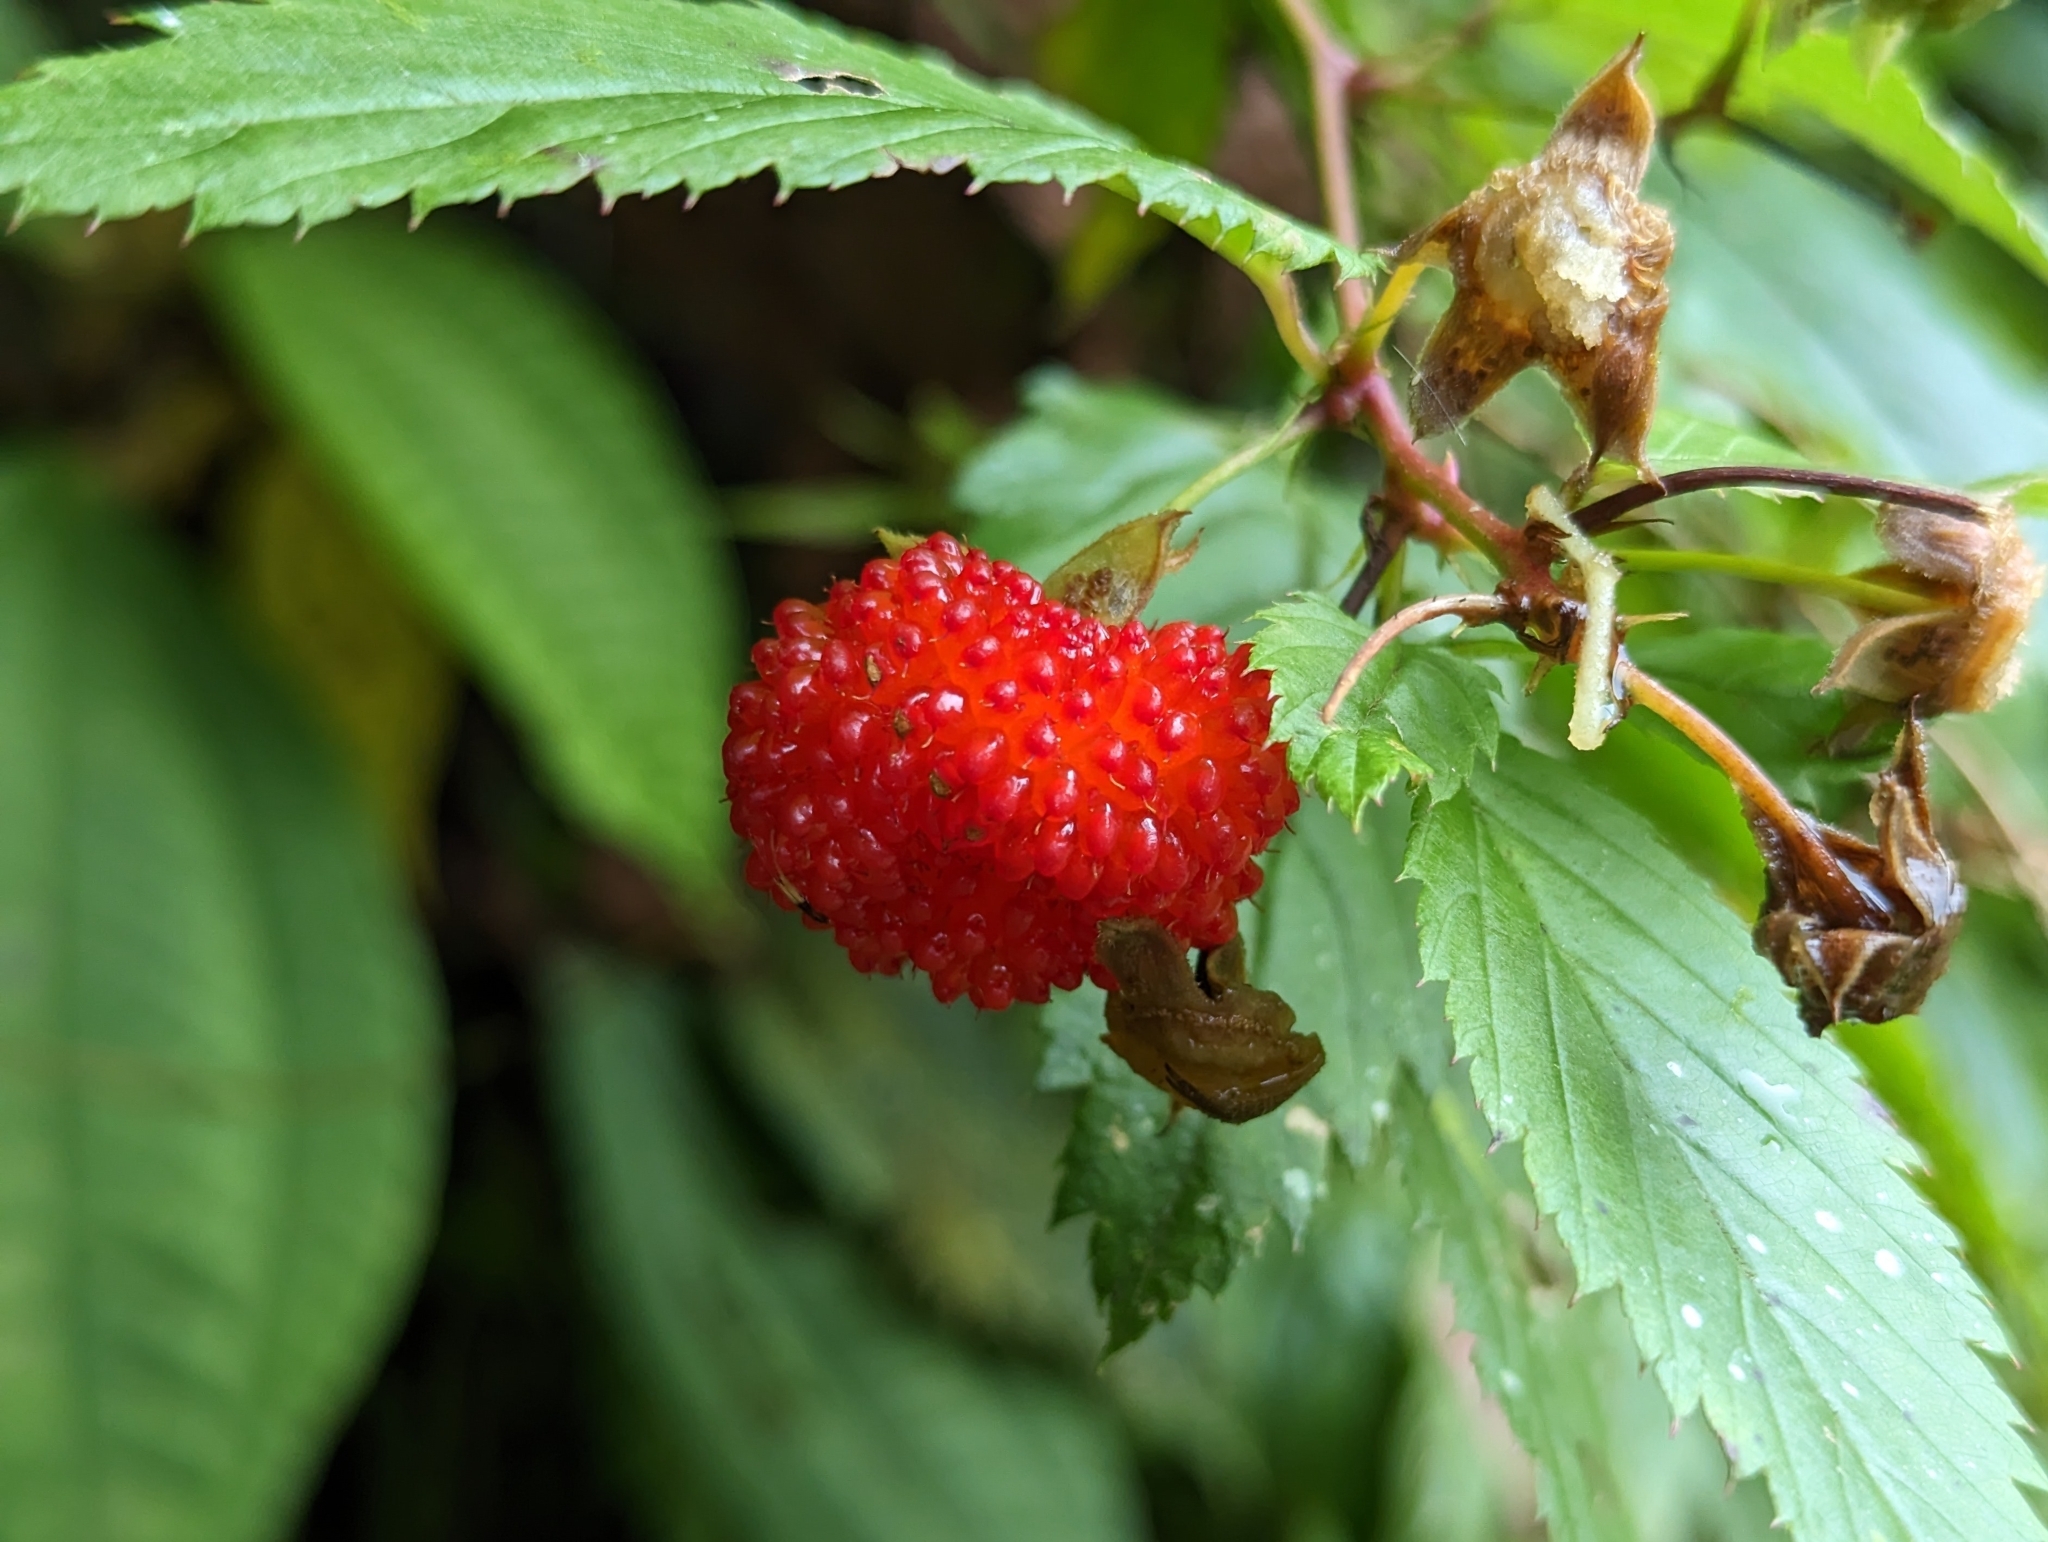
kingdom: Plantae
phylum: Tracheophyta
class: Magnoliopsida
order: Rosales
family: Rosaceae
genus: Potentilla
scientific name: Potentilla indica
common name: Yellow-flowered strawberry
